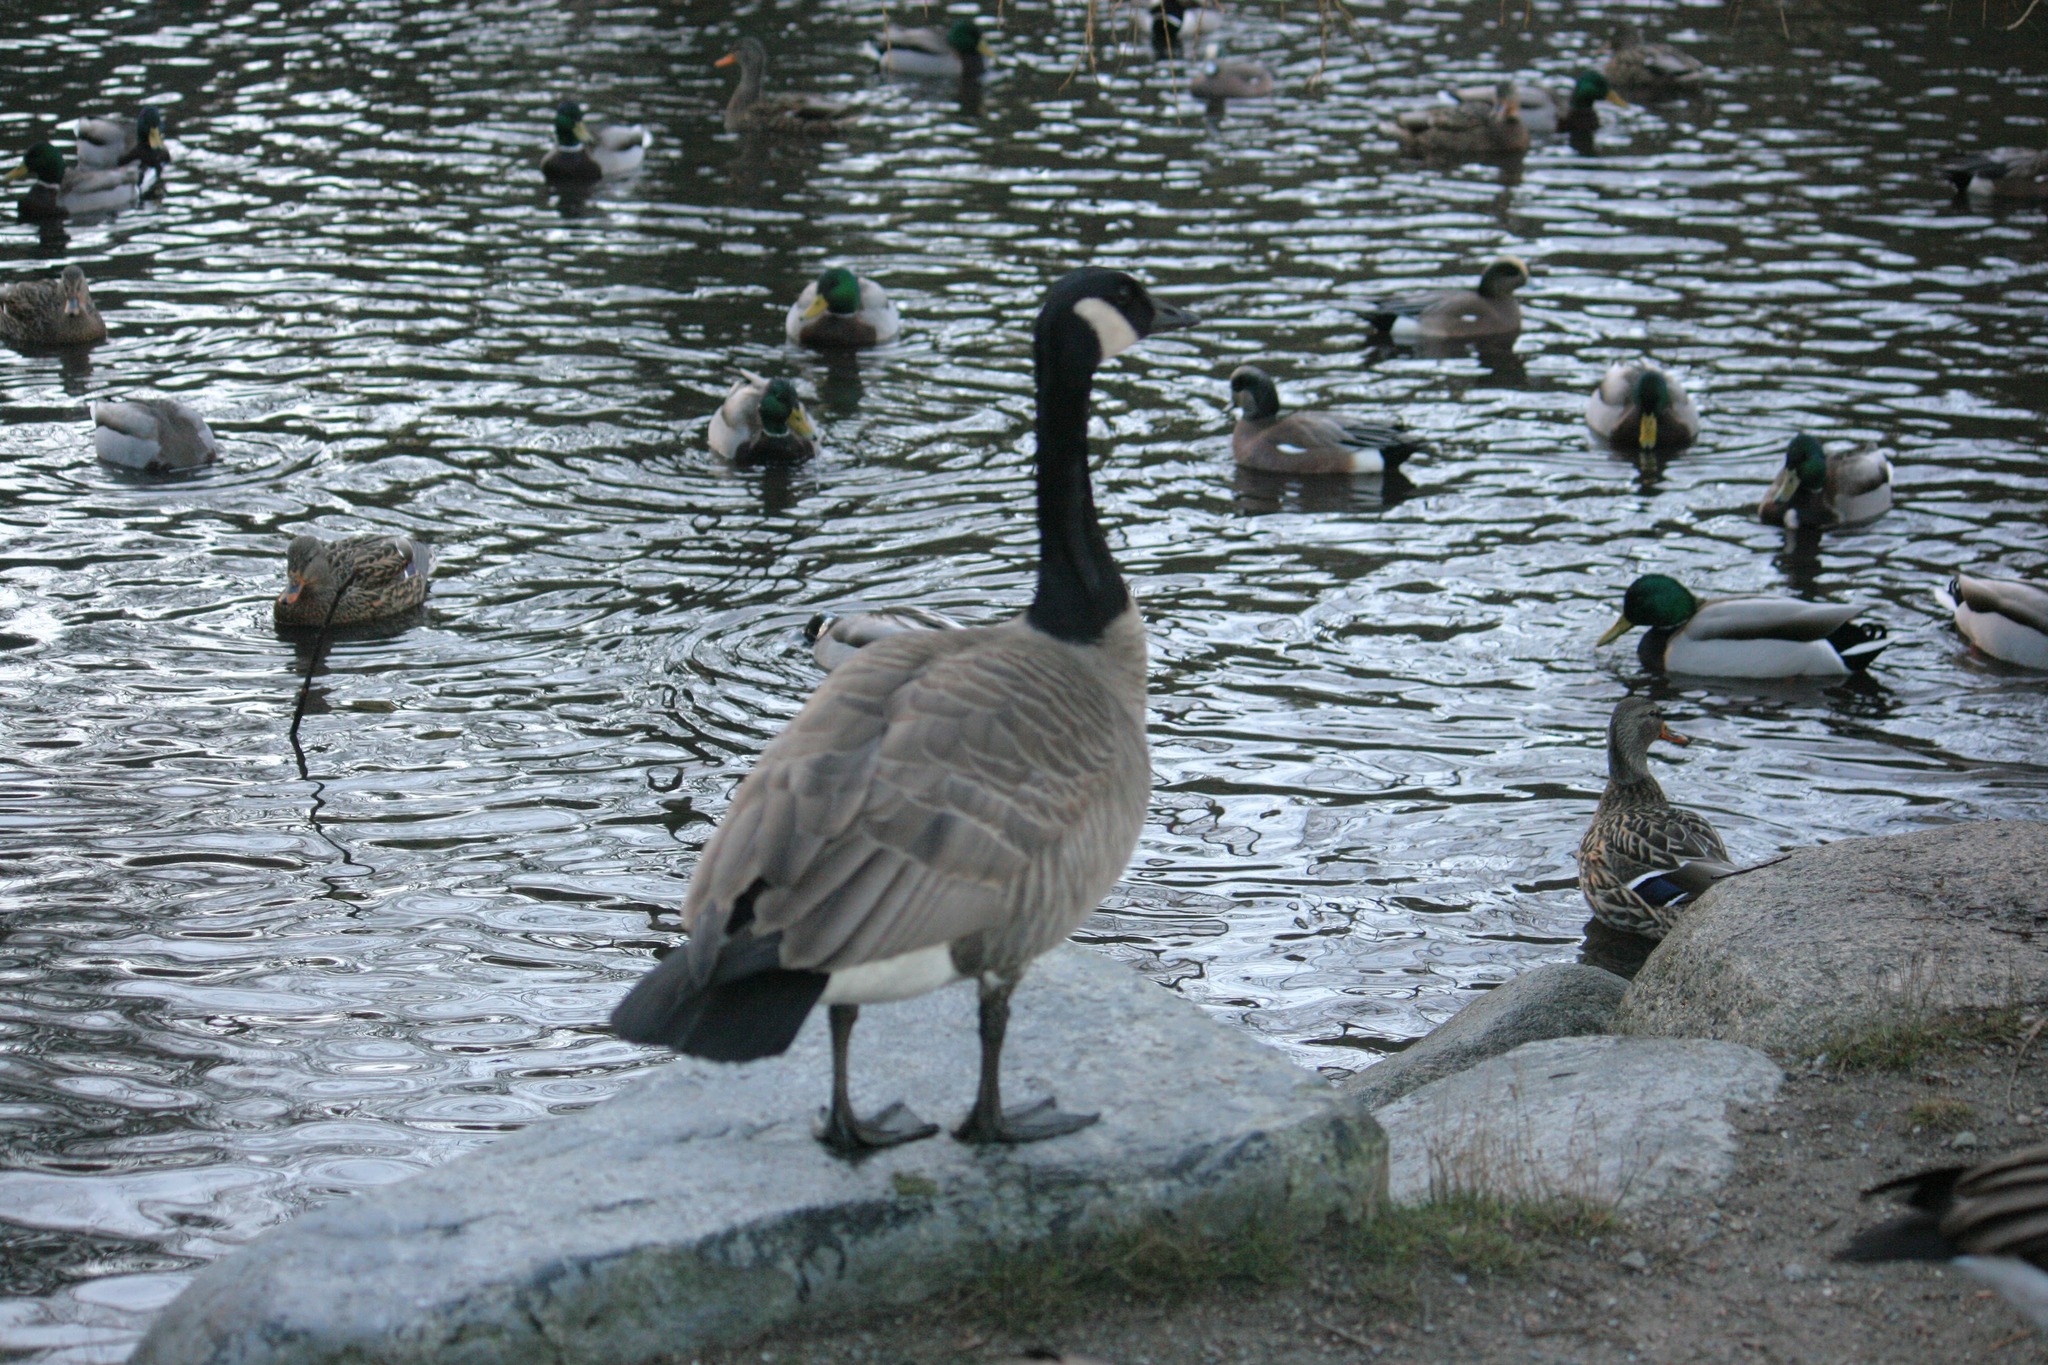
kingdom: Animalia
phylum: Chordata
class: Aves
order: Anseriformes
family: Anatidae
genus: Branta
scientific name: Branta canadensis
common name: Canada goose
